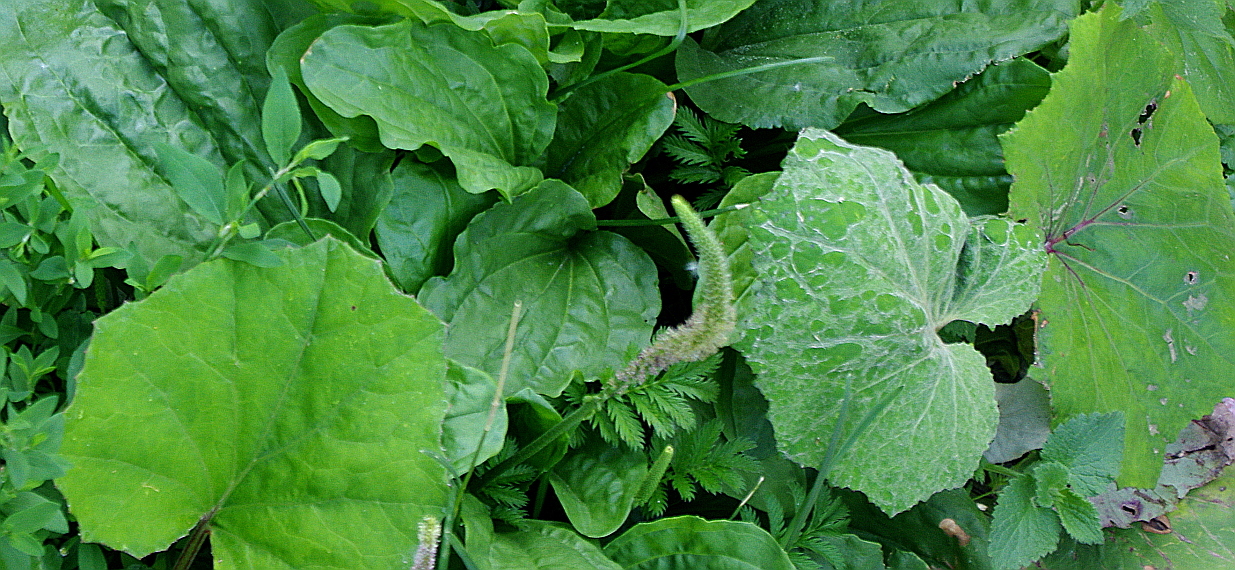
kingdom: Plantae
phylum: Tracheophyta
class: Magnoliopsida
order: Asterales
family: Asteraceae
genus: Tussilago
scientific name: Tussilago farfara
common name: Coltsfoot
